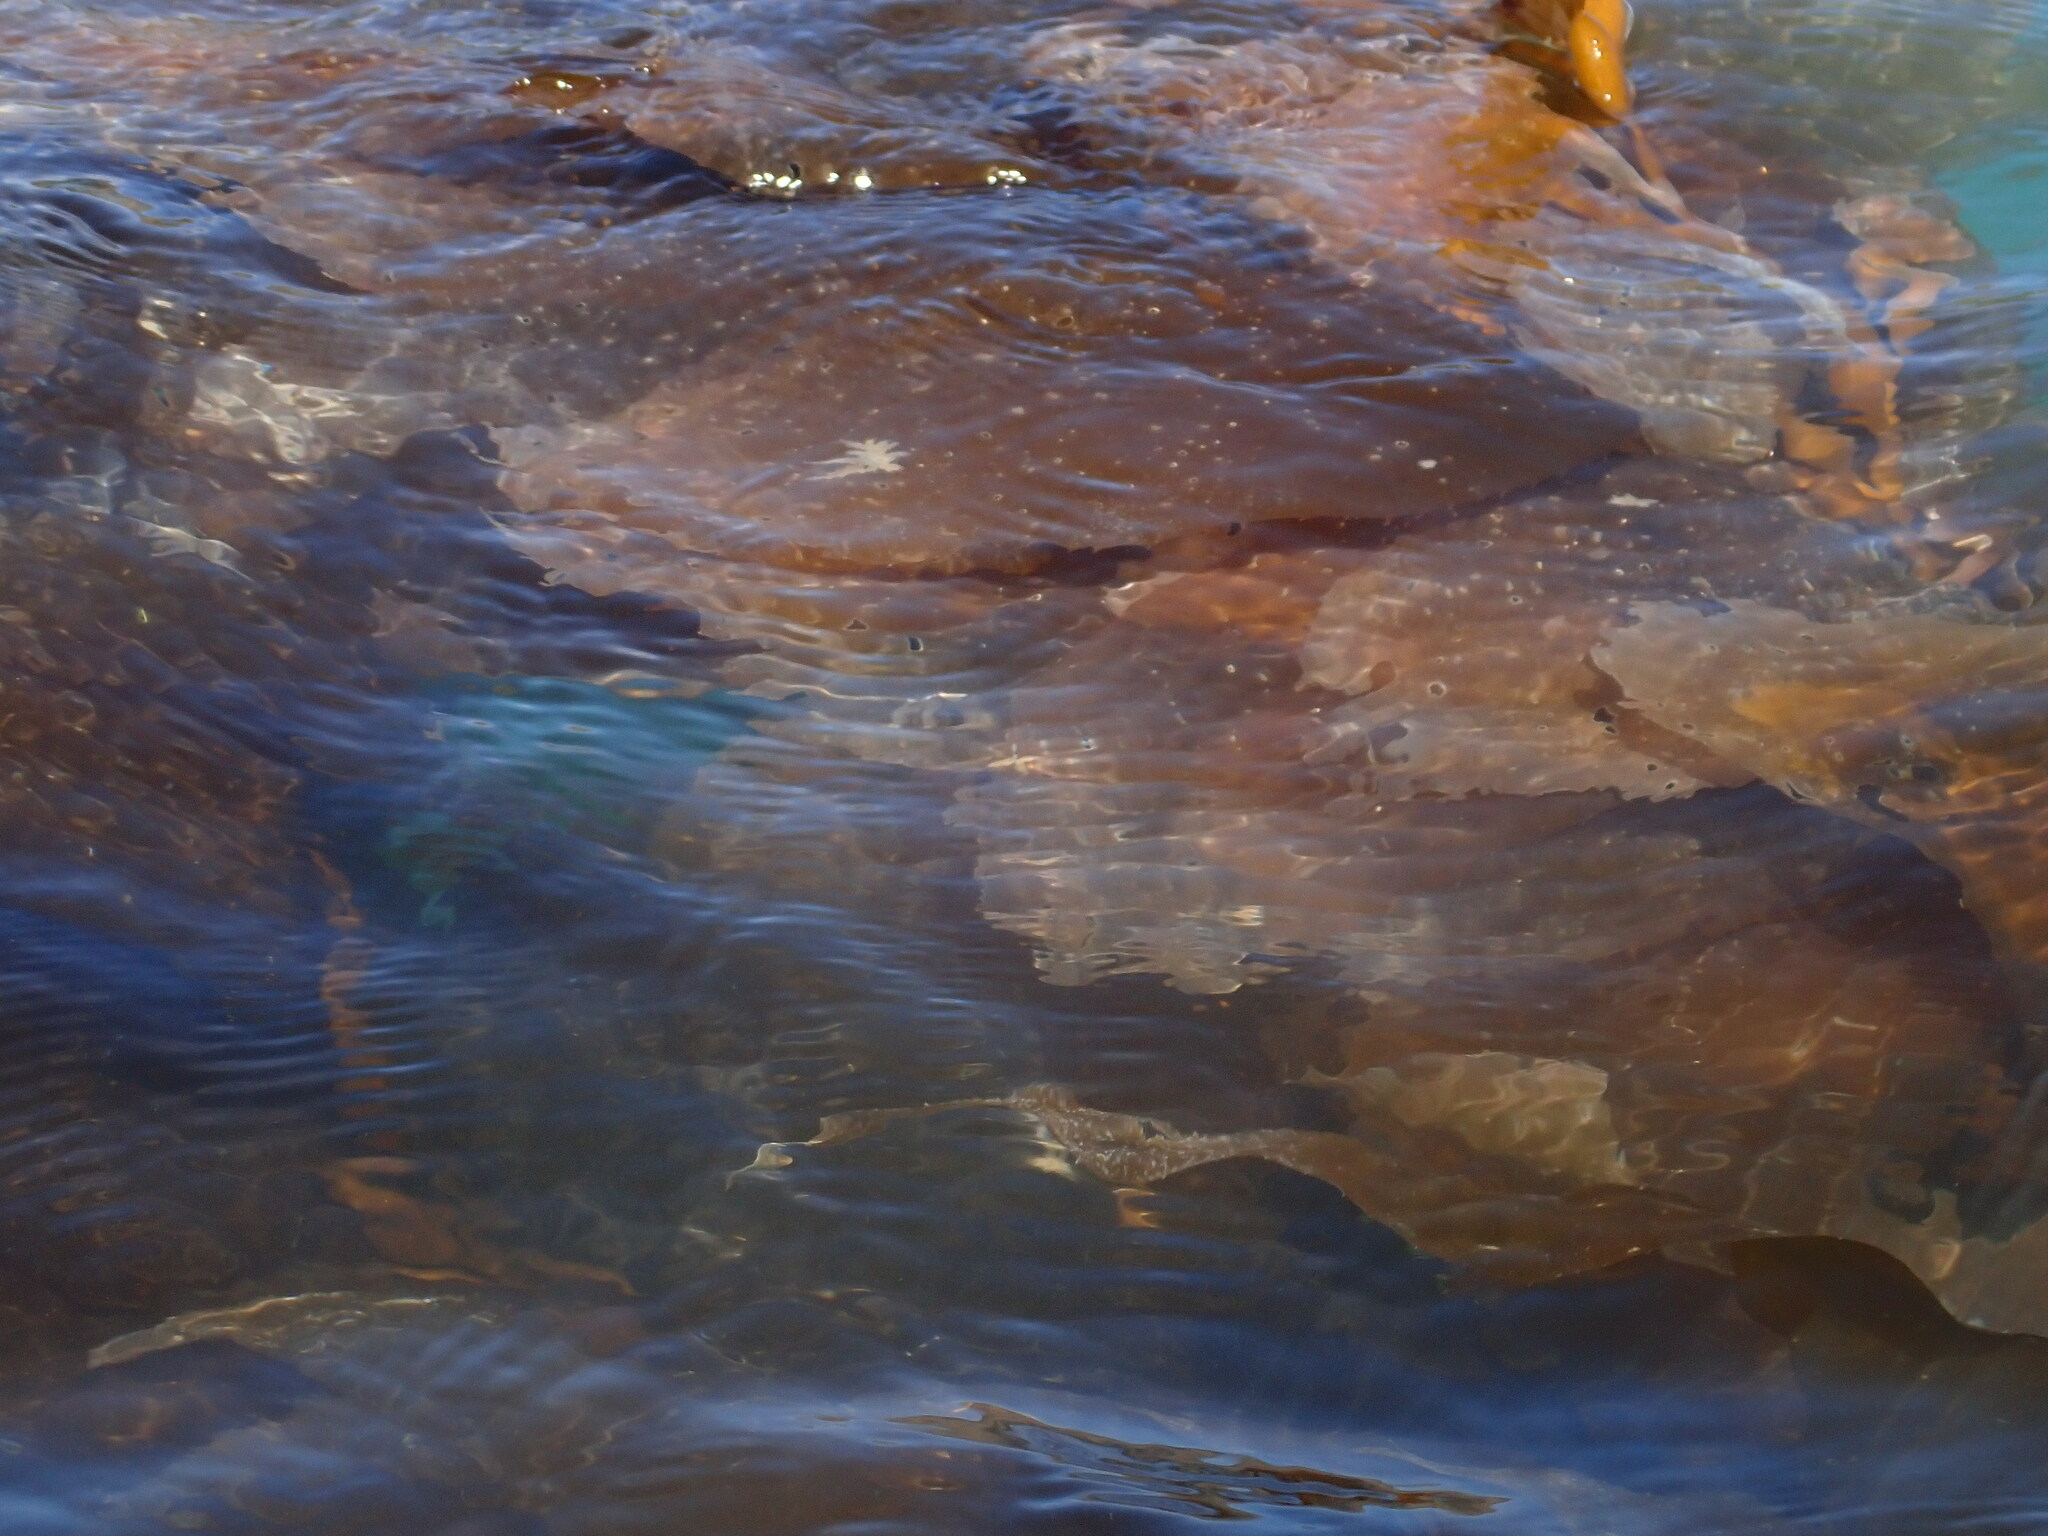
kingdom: Chromista
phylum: Ochrophyta
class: Phaeophyceae
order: Laminariales
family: Laminariaceae
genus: Macrocystis
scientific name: Macrocystis pyrifera
